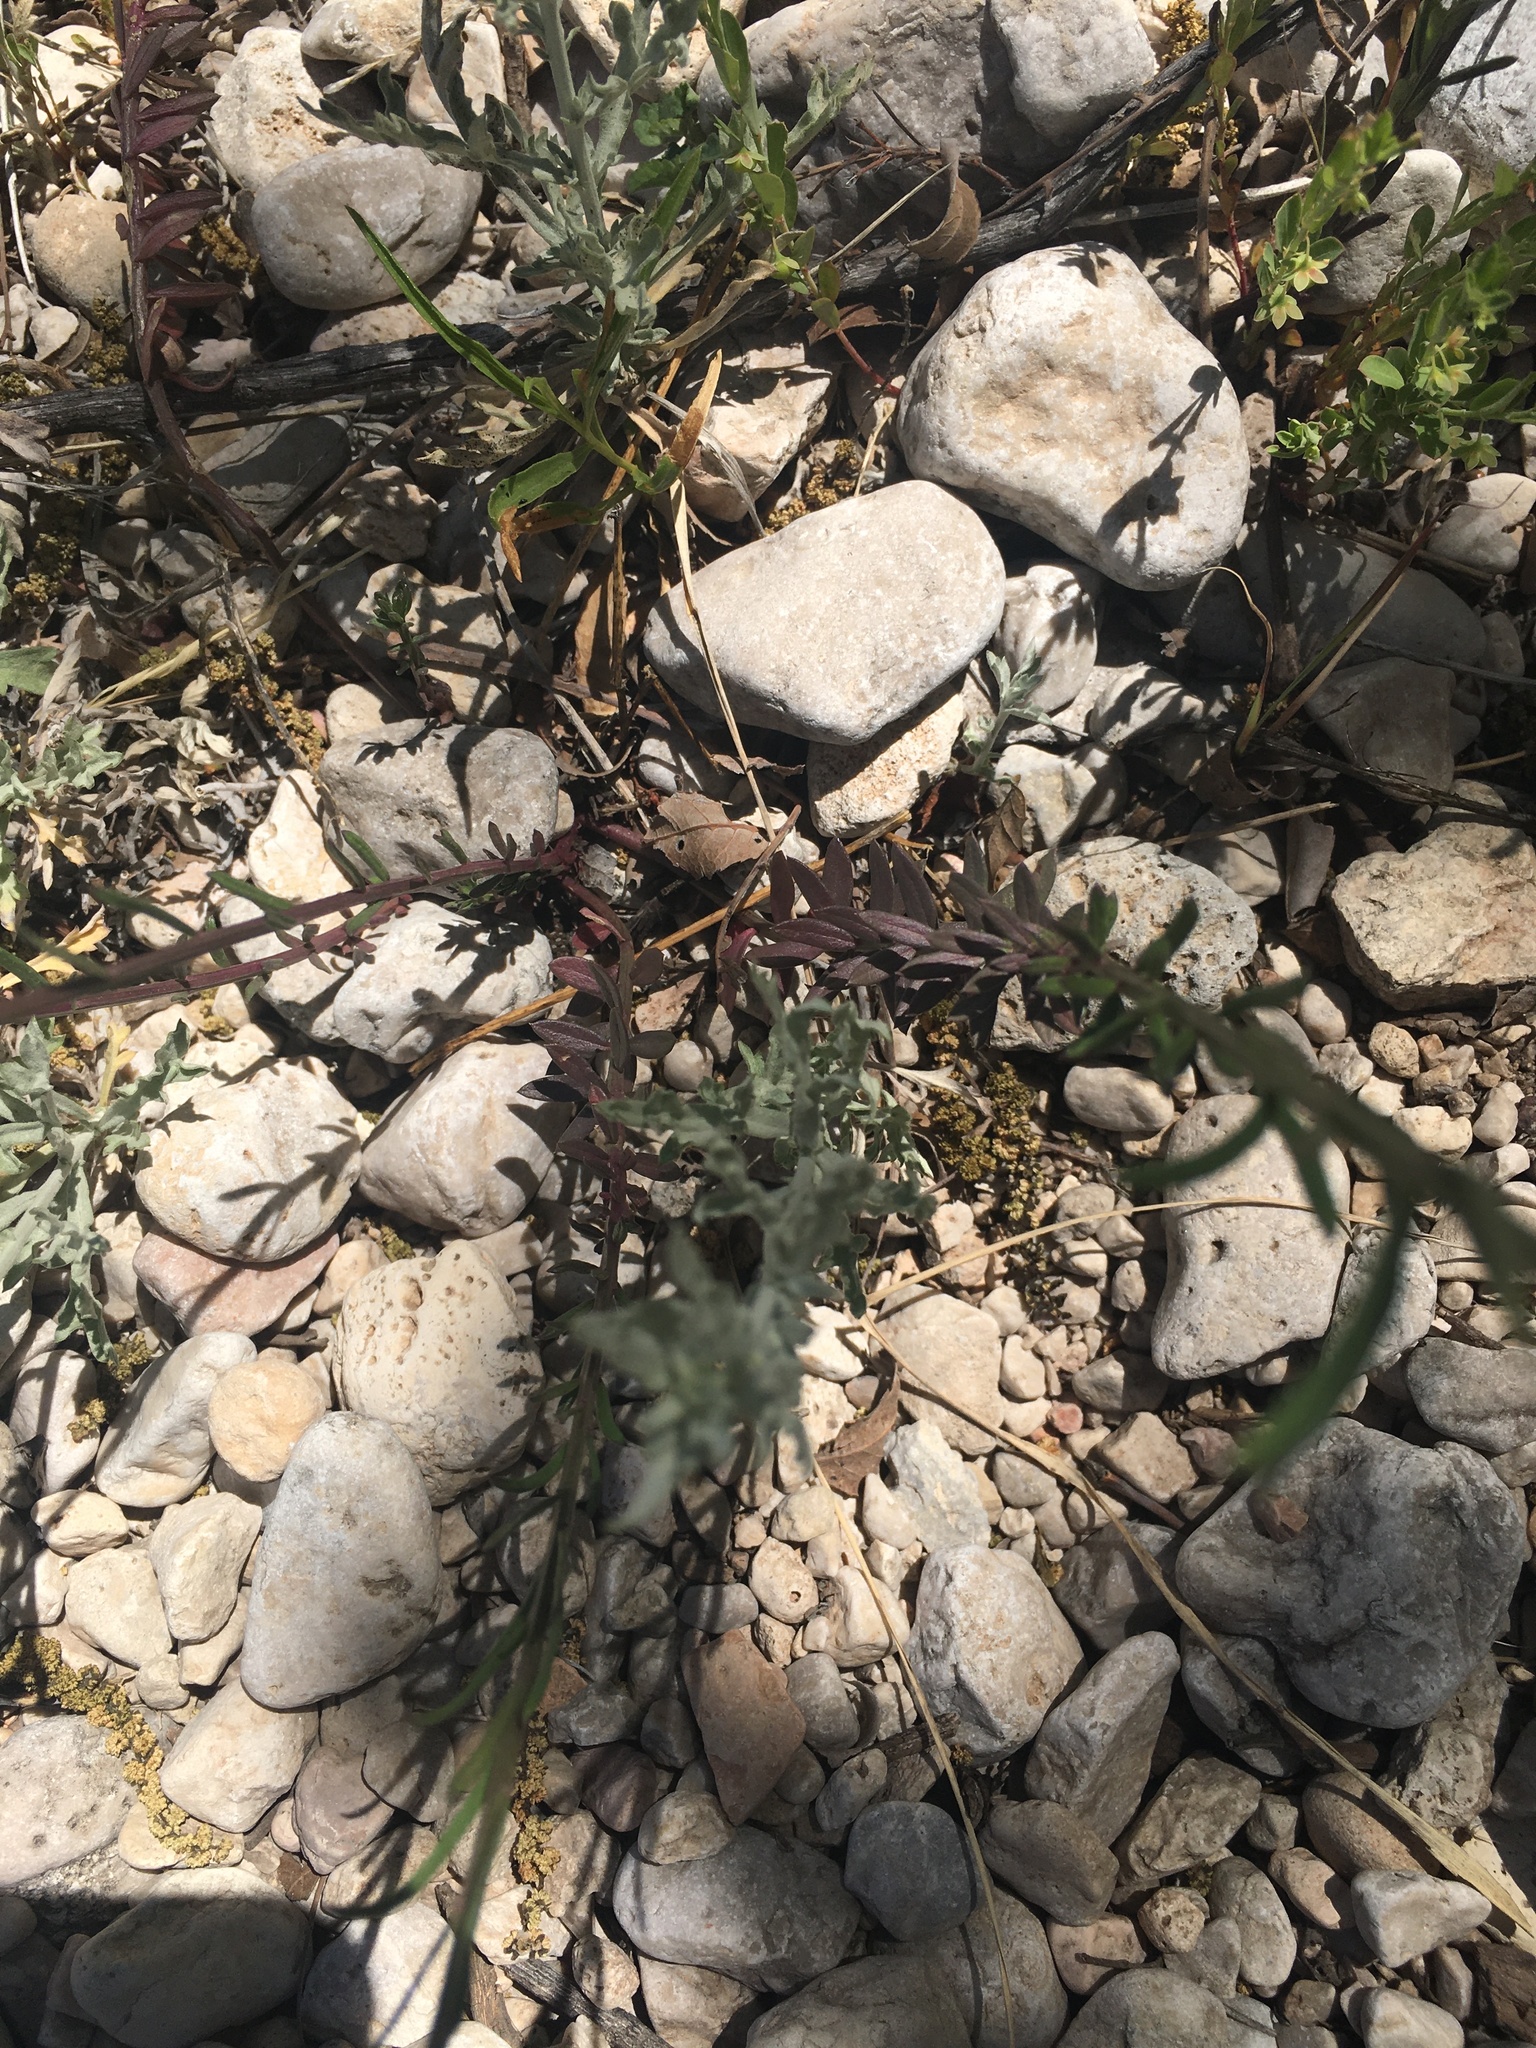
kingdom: Plantae
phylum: Tracheophyta
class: Magnoliopsida
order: Fabales
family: Polygalaceae
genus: Polygala
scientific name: Polygala alba
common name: White milkwort
